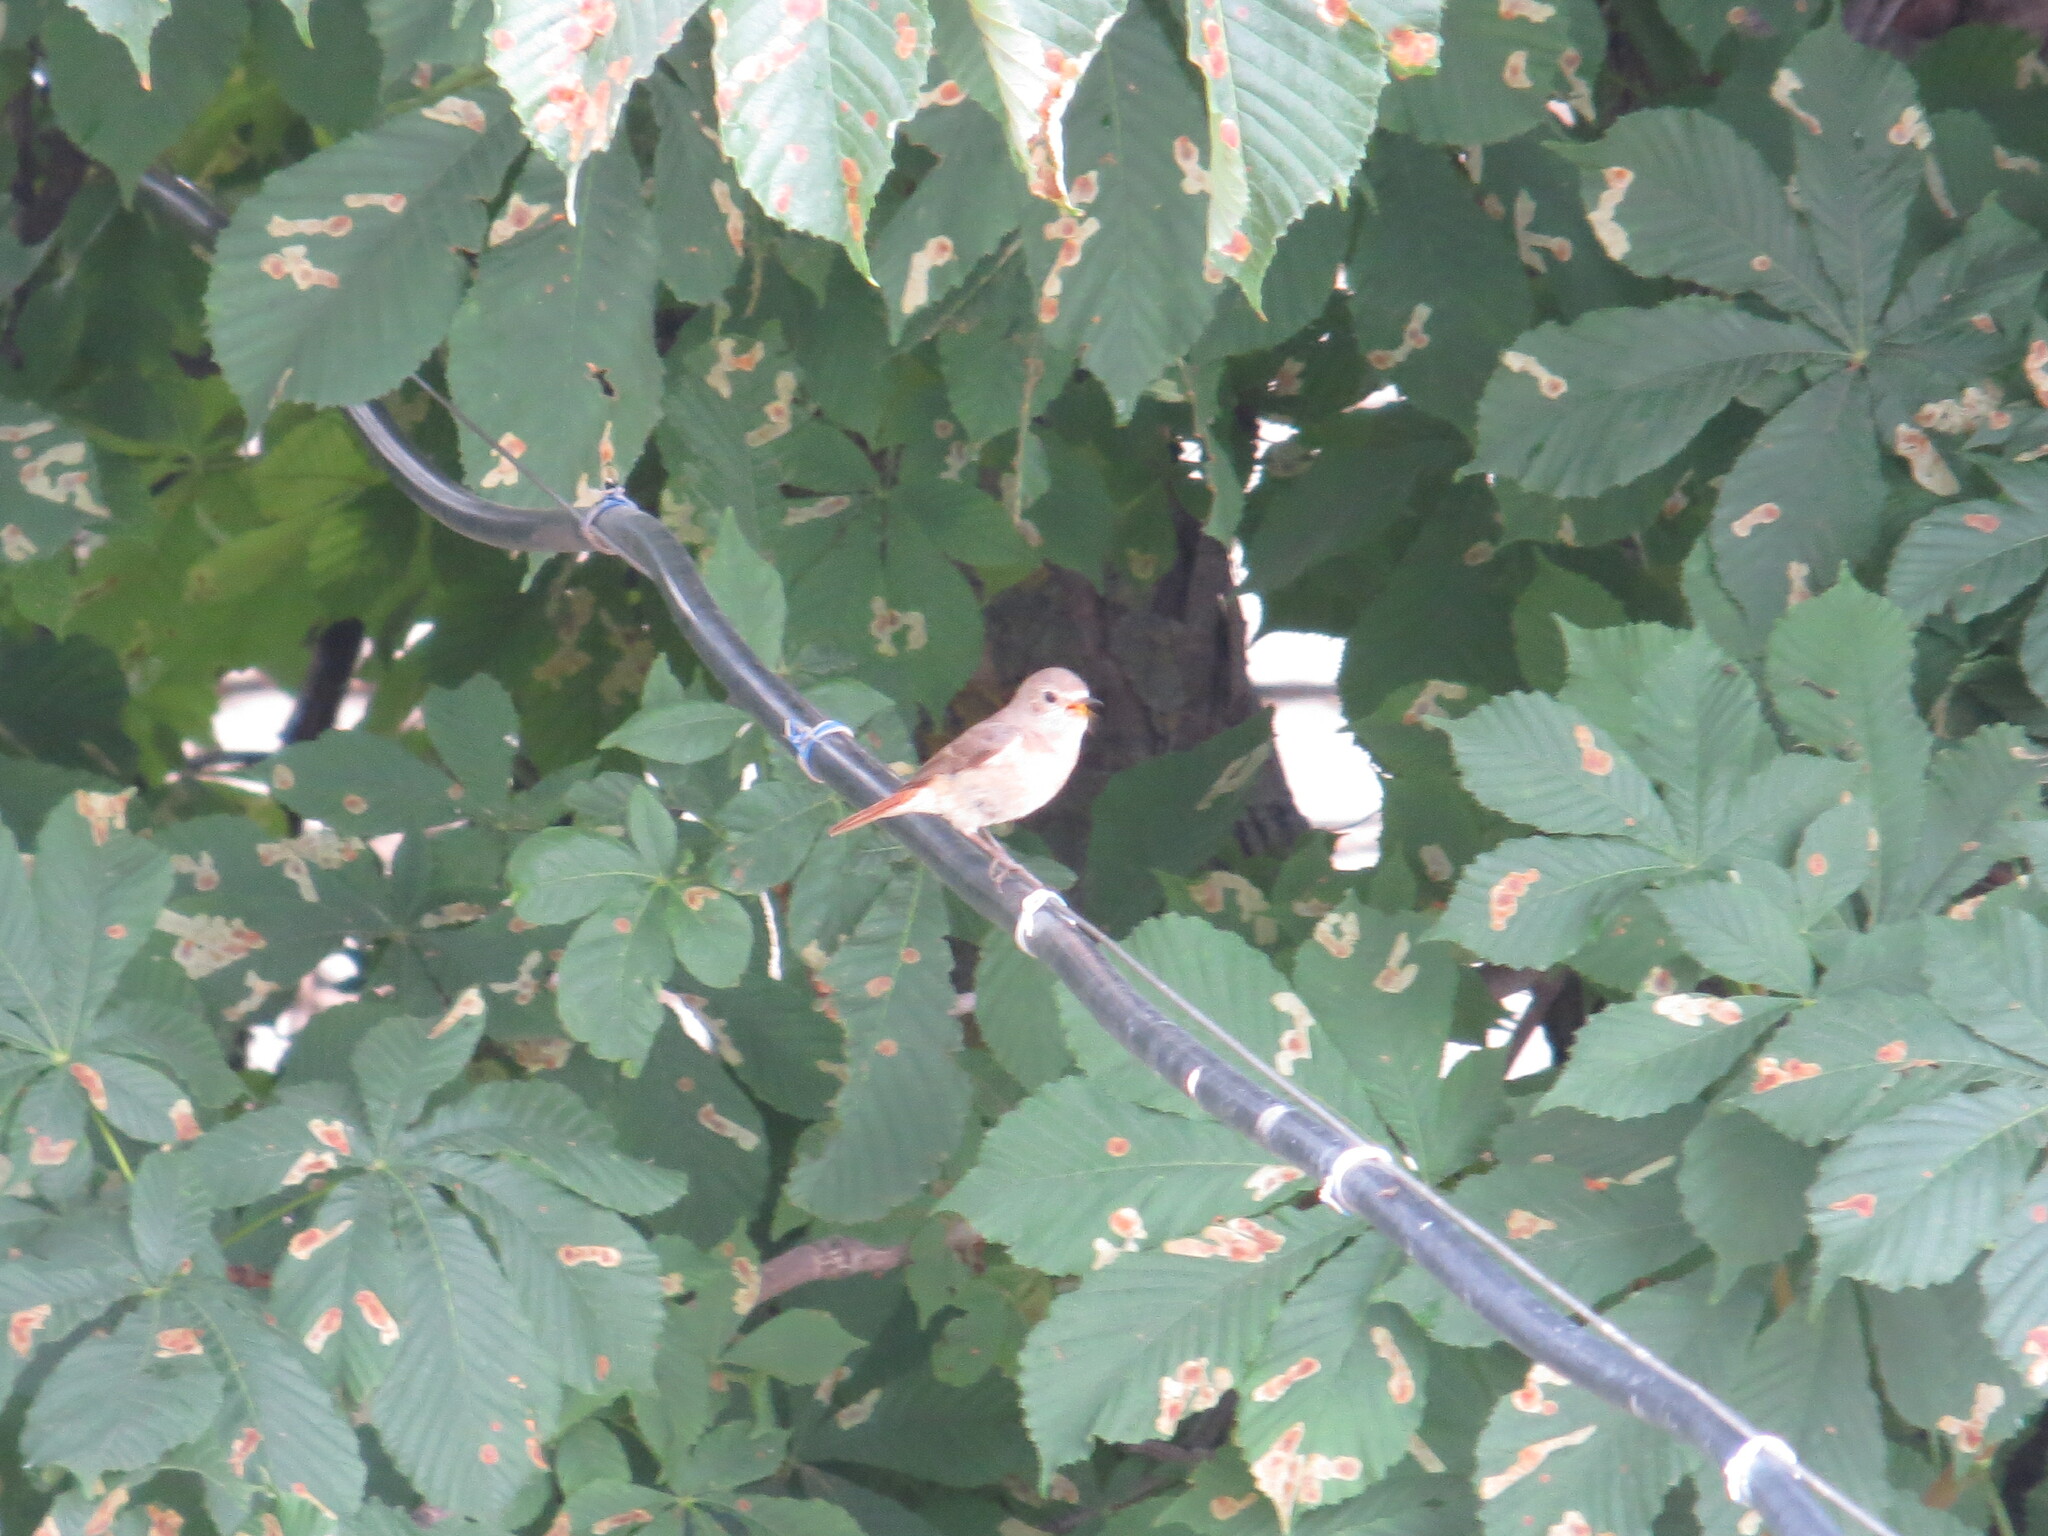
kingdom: Animalia
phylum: Chordata
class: Aves
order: Passeriformes
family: Muscicapidae
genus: Phoenicurus
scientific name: Phoenicurus phoenicurus
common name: Common redstart
